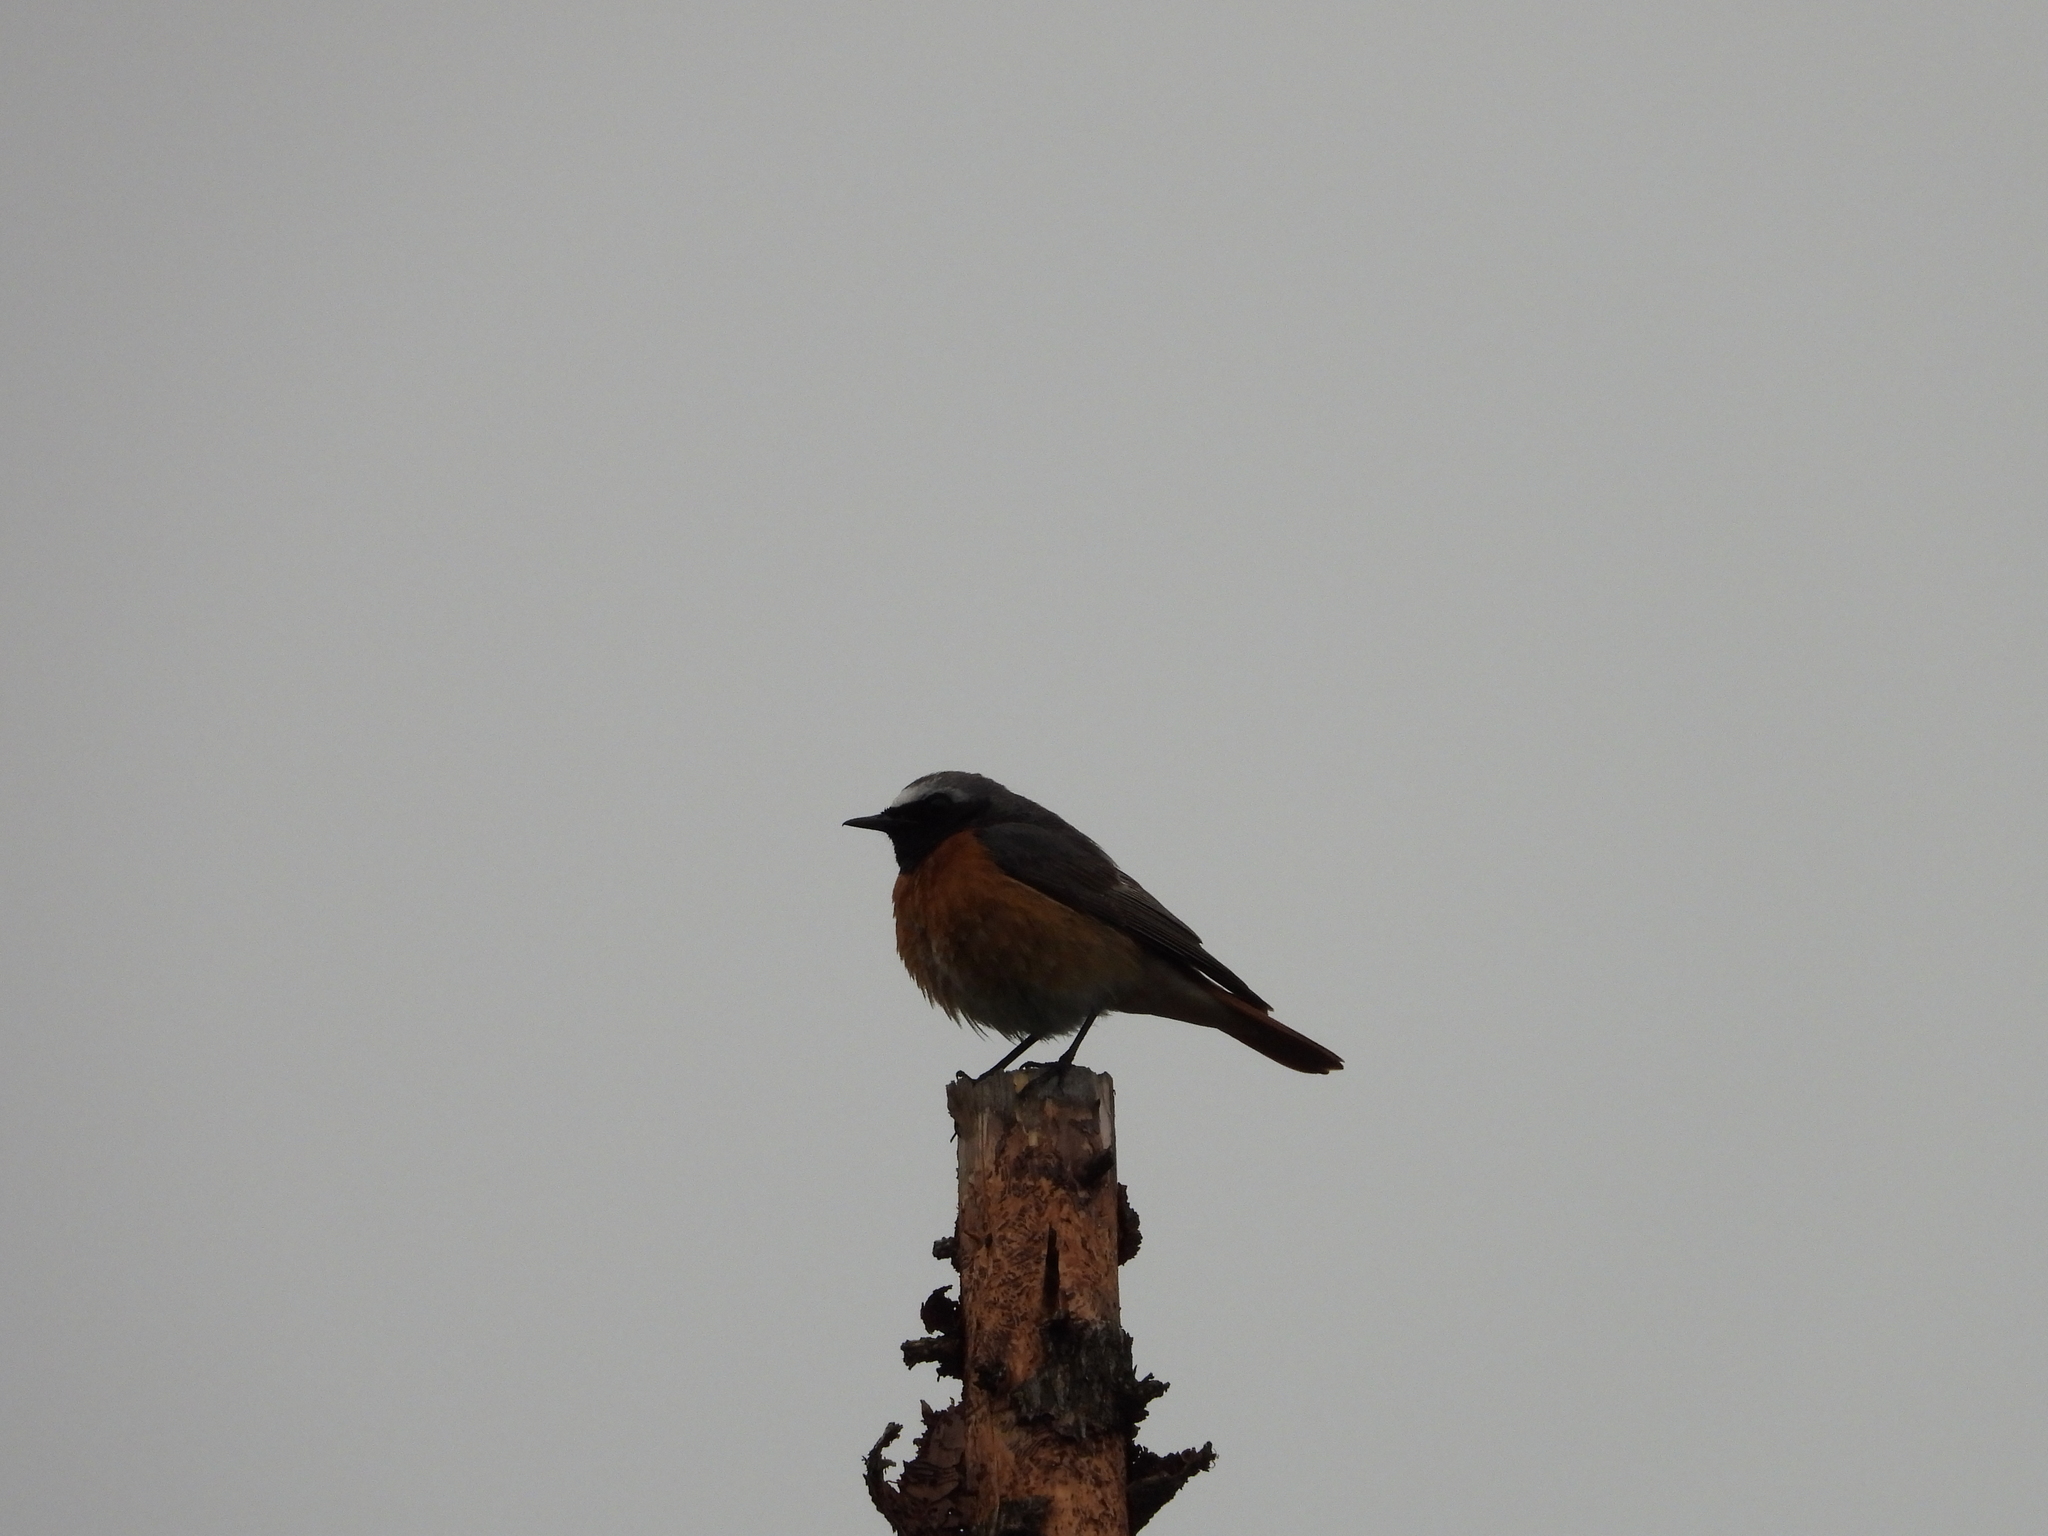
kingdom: Animalia
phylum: Chordata
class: Aves
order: Passeriformes
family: Muscicapidae
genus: Phoenicurus
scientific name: Phoenicurus phoenicurus
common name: Common redstart
